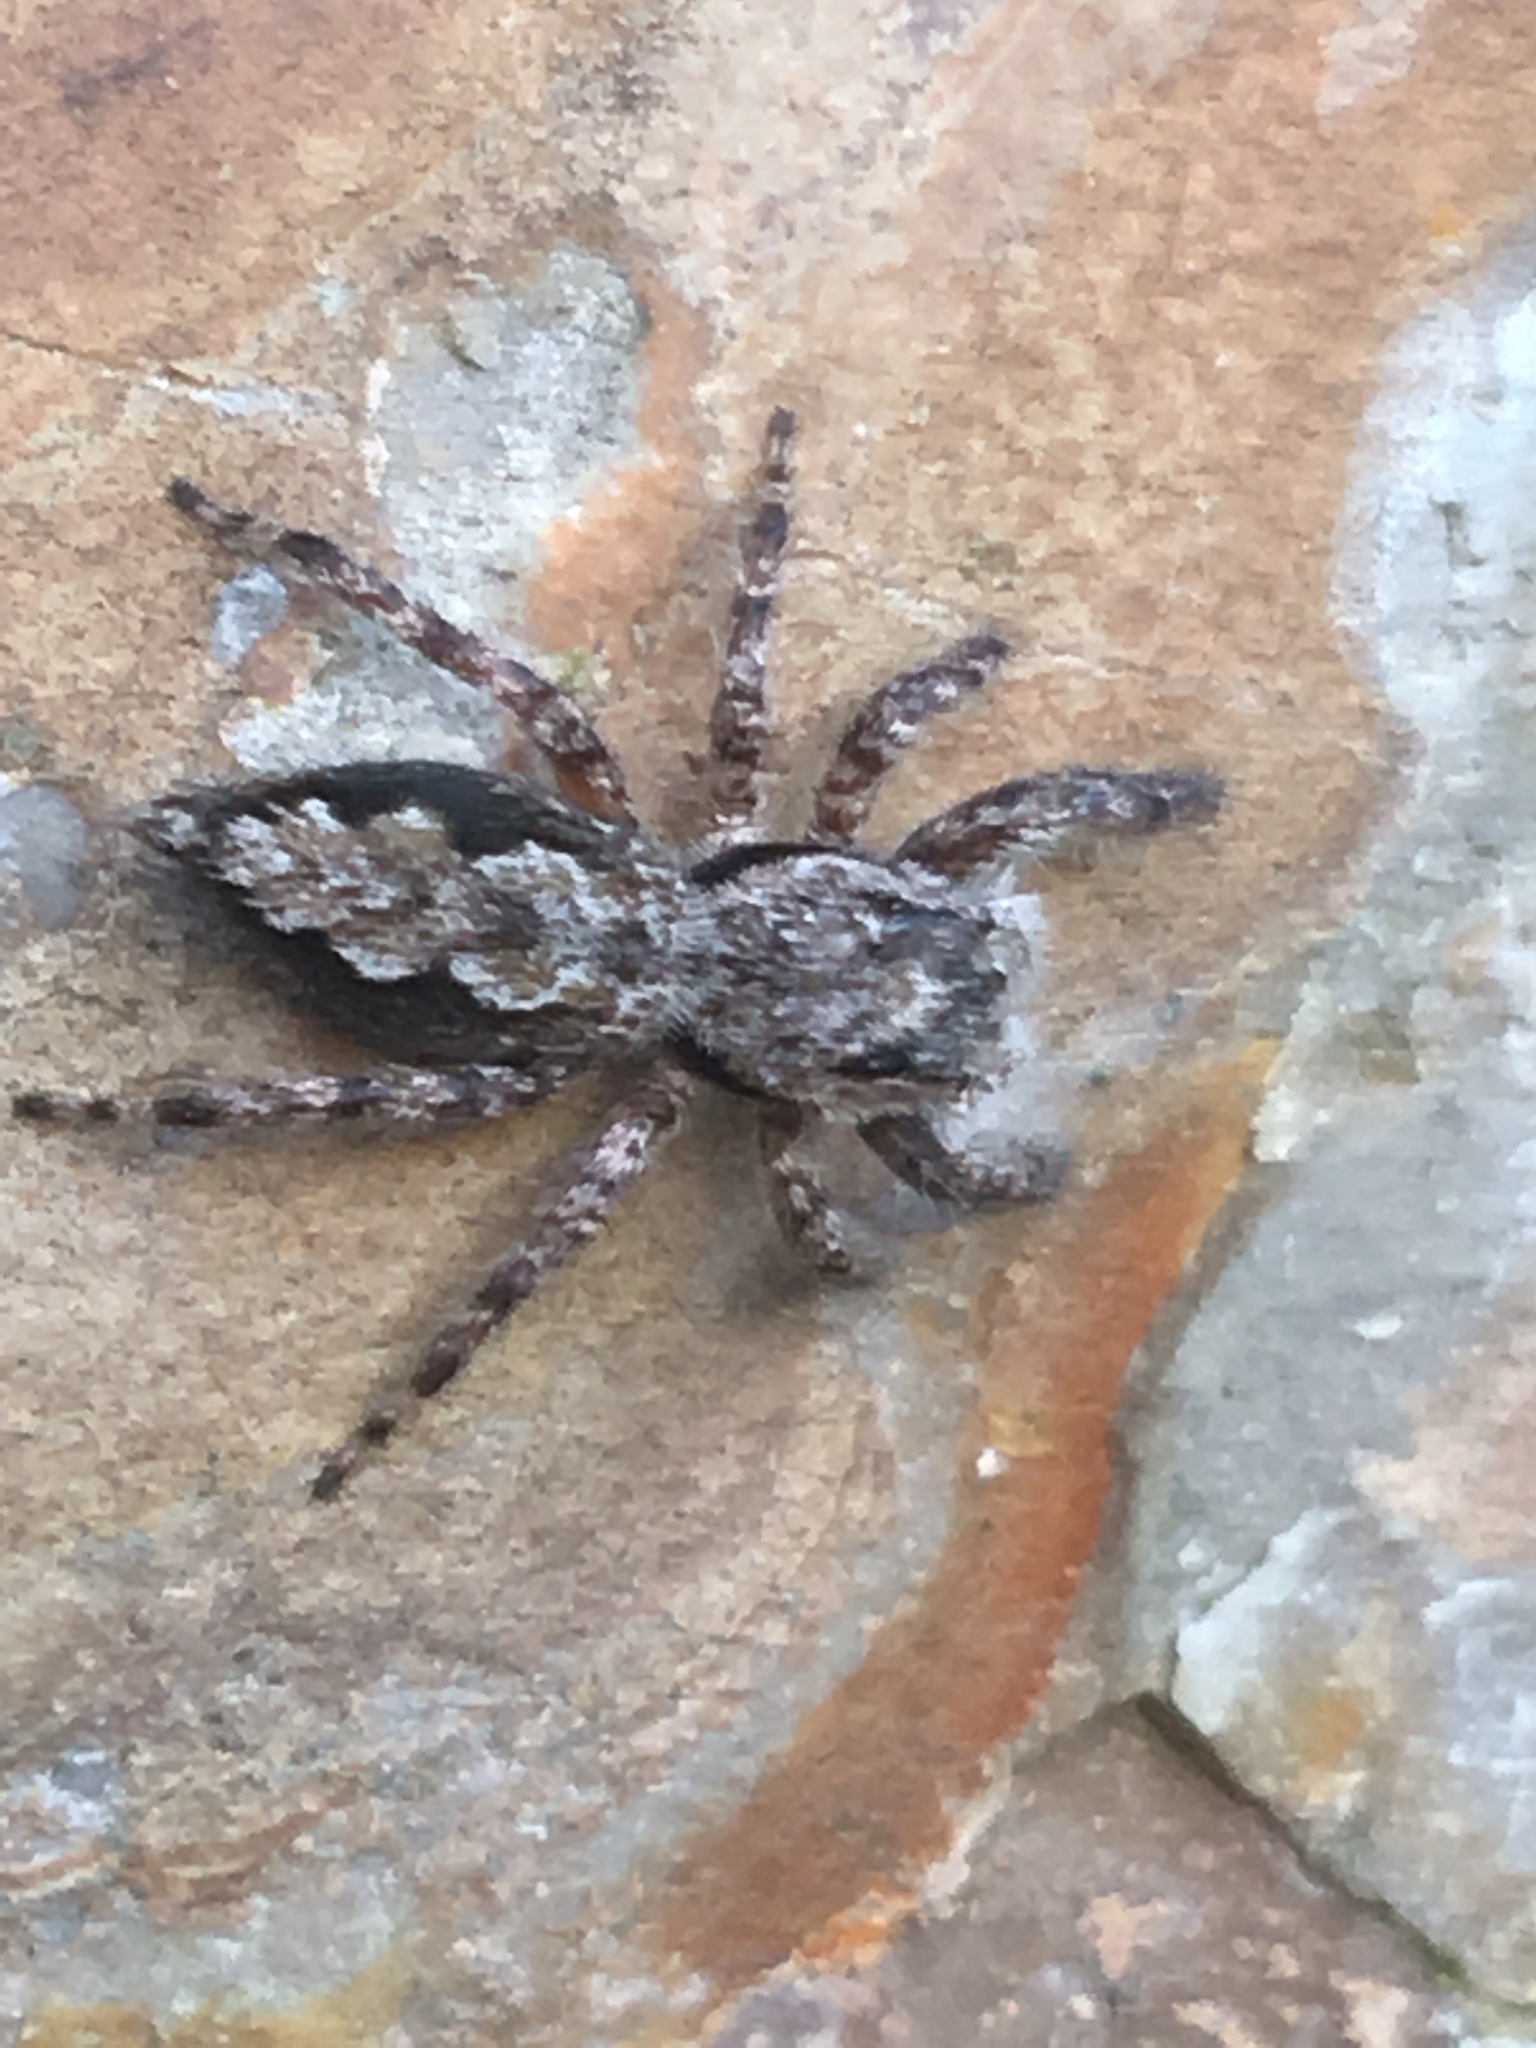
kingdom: Animalia
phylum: Arthropoda
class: Arachnida
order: Araneae
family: Salticidae
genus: Platycryptus
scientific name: Platycryptus undatus
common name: Tan jumping spider
